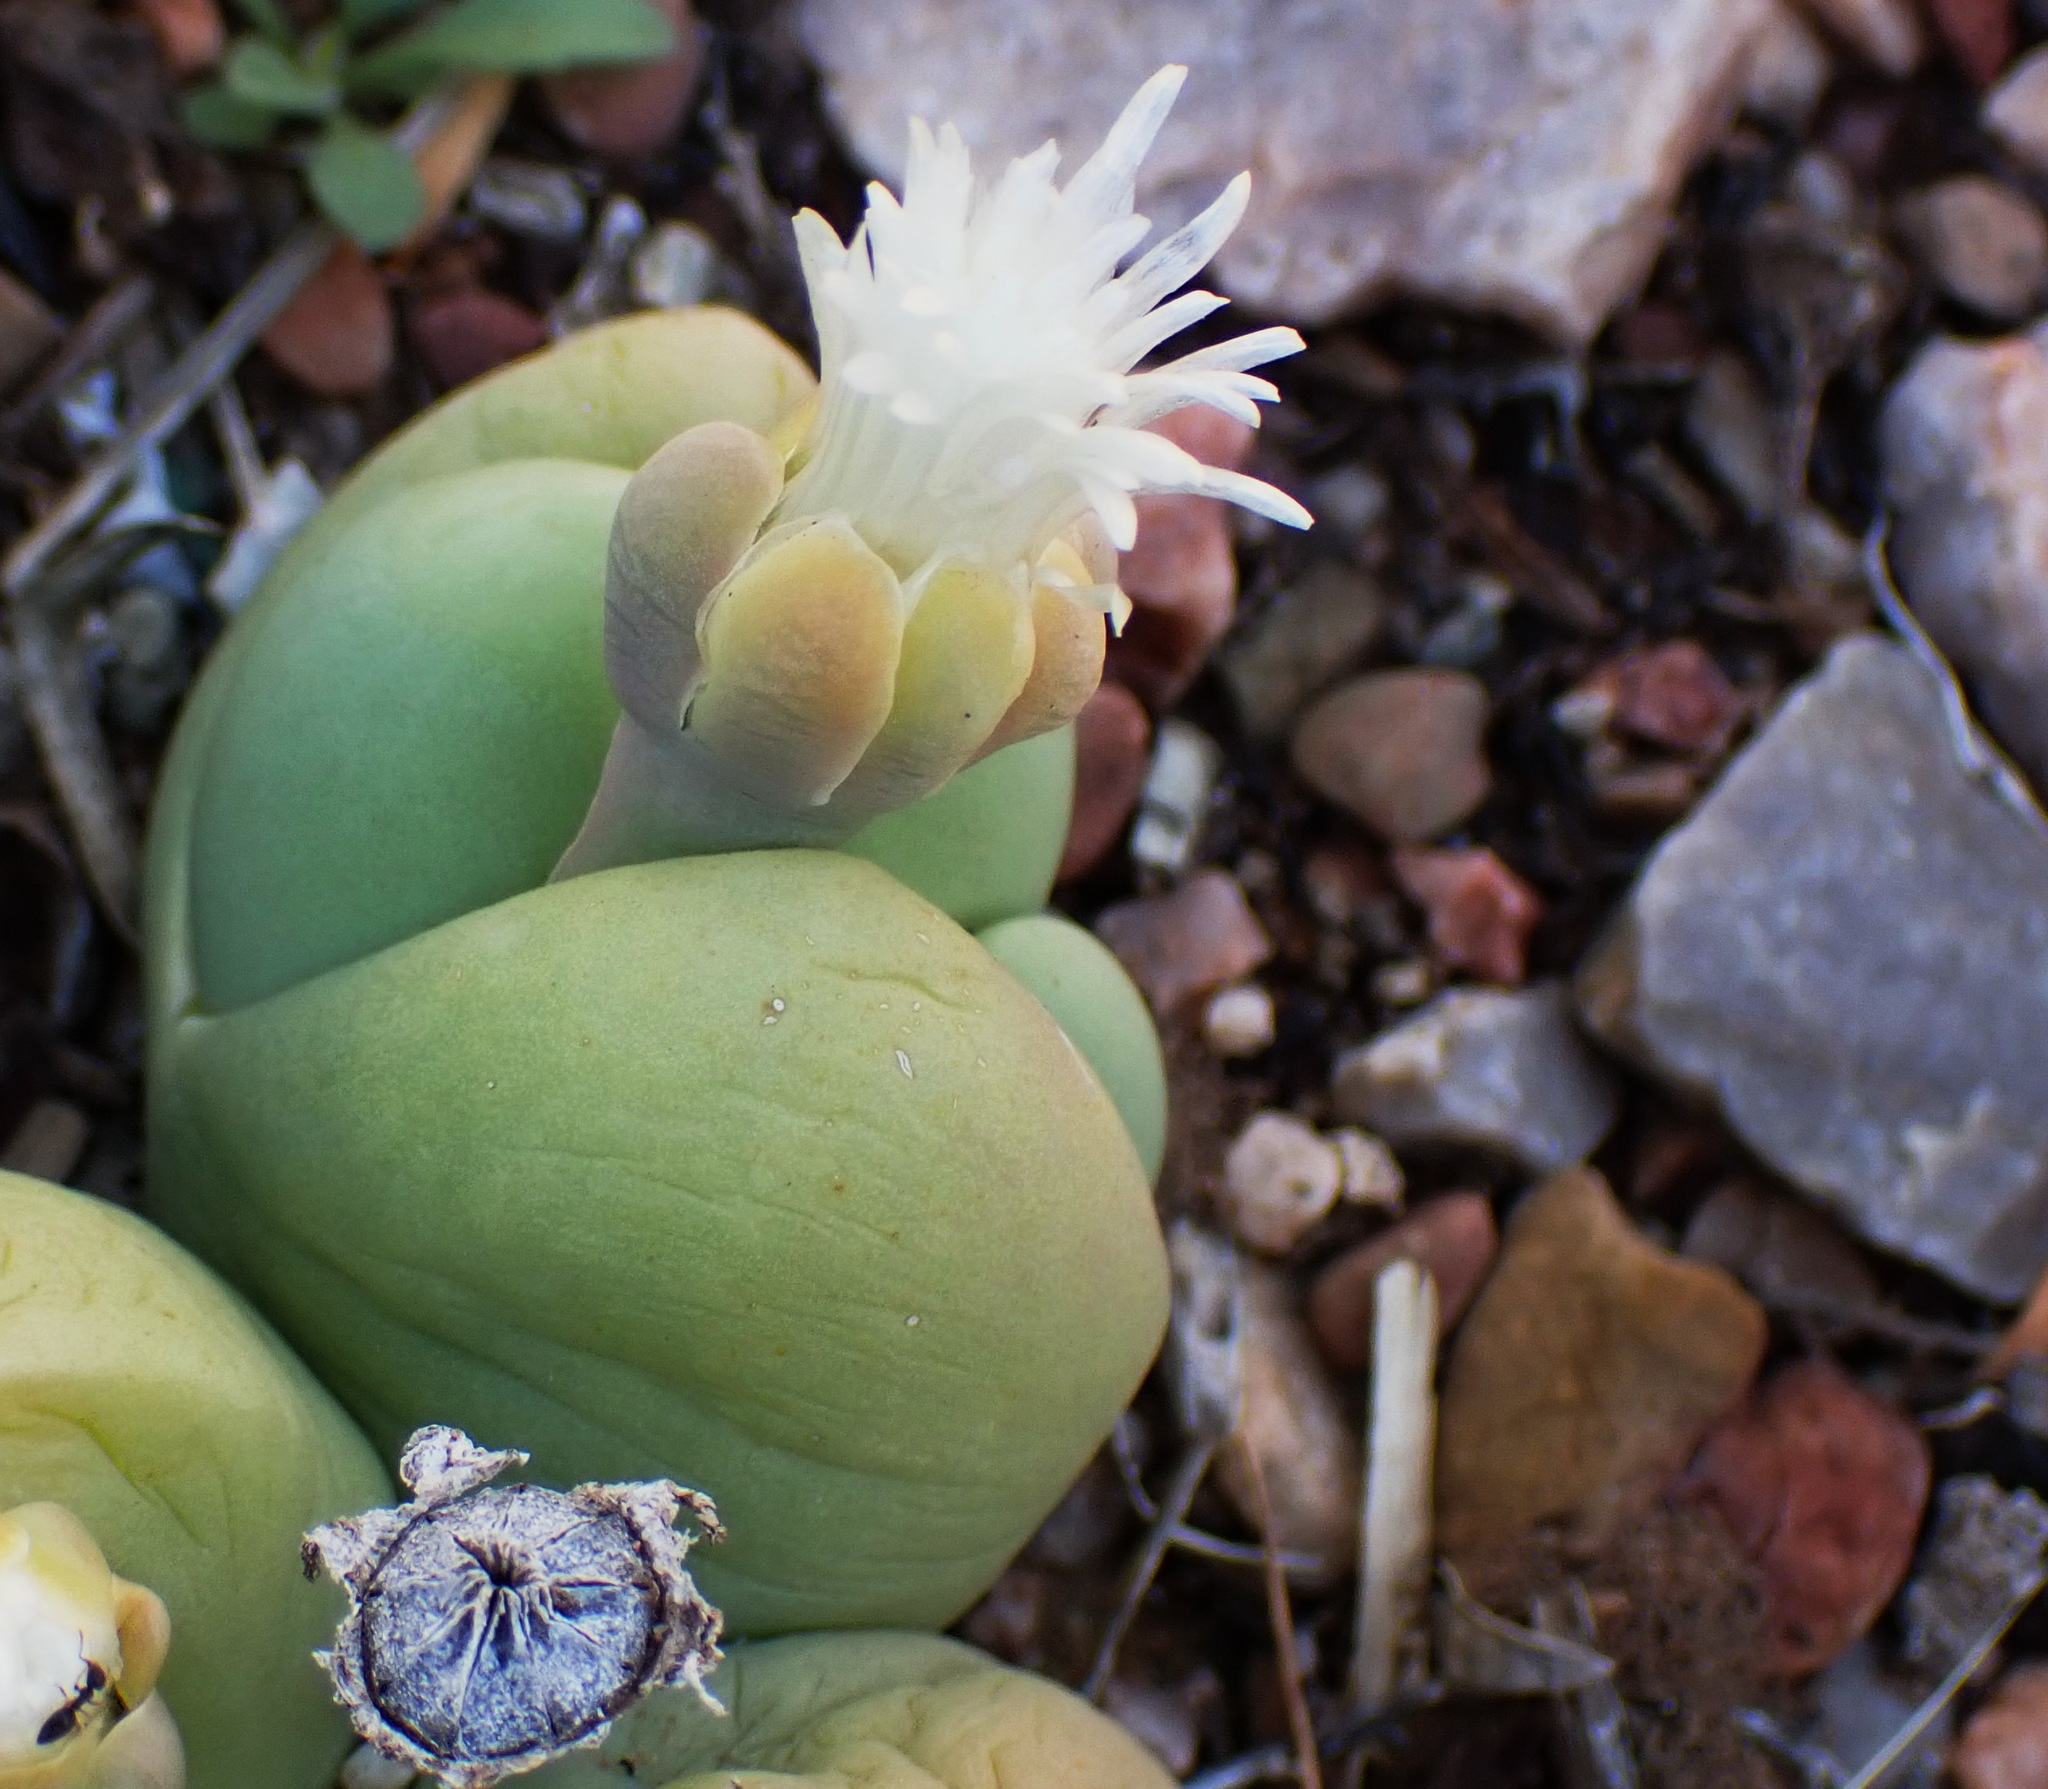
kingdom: Plantae
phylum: Tracheophyta
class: Magnoliopsida
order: Caryophyllales
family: Aizoaceae
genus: Gibbaeum
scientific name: Gibbaeum heathii
